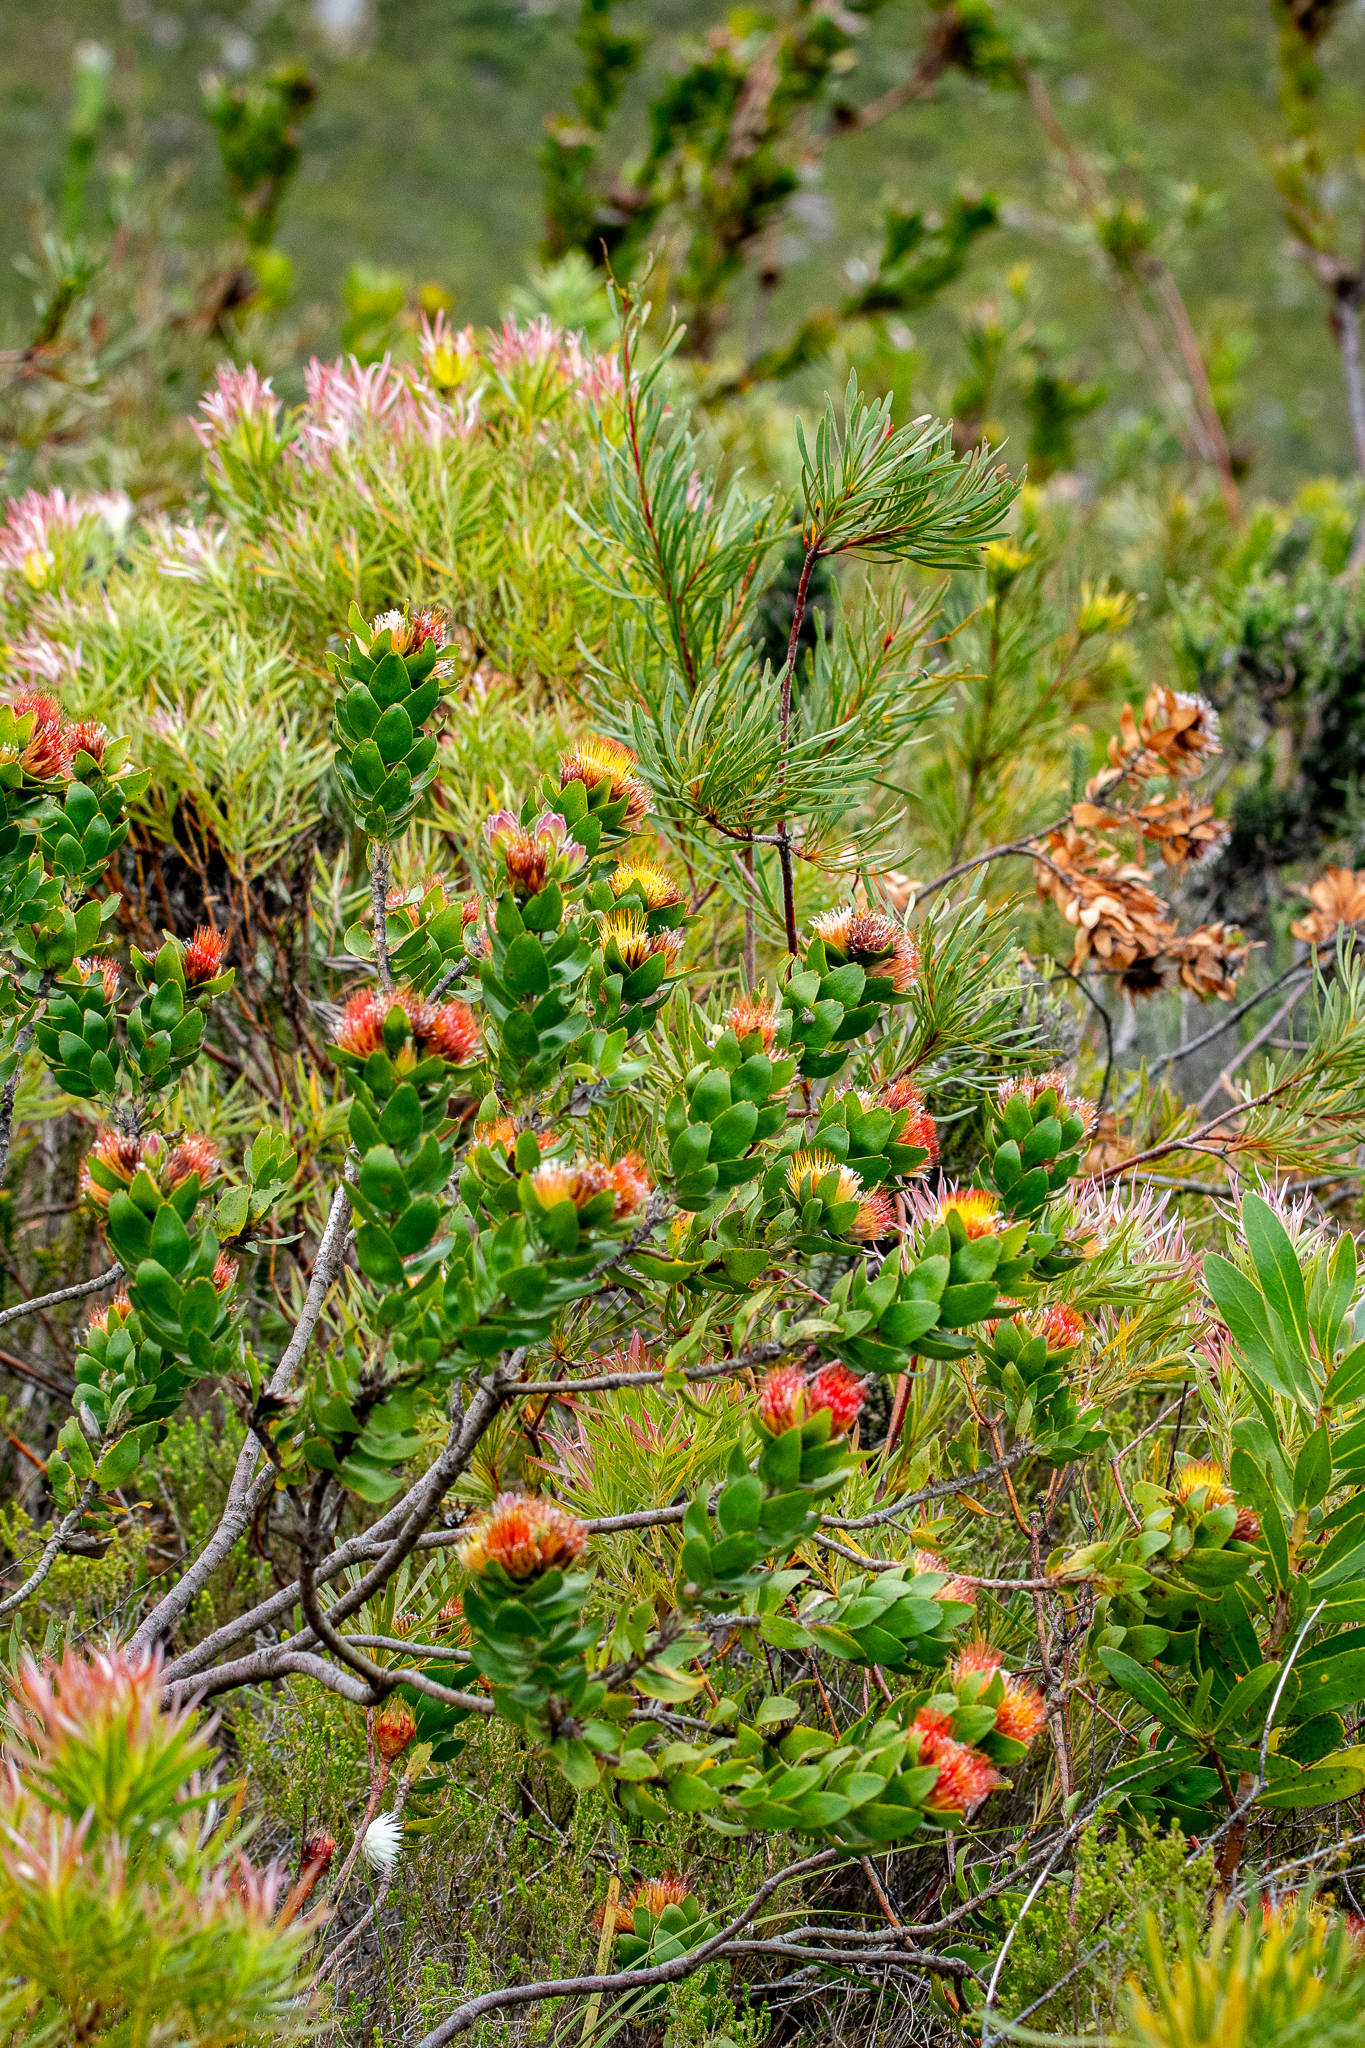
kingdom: Plantae
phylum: Tracheophyta
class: Magnoliopsida
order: Proteales
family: Proteaceae
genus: Leucospermum
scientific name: Leucospermum oleifolium
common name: Matches
